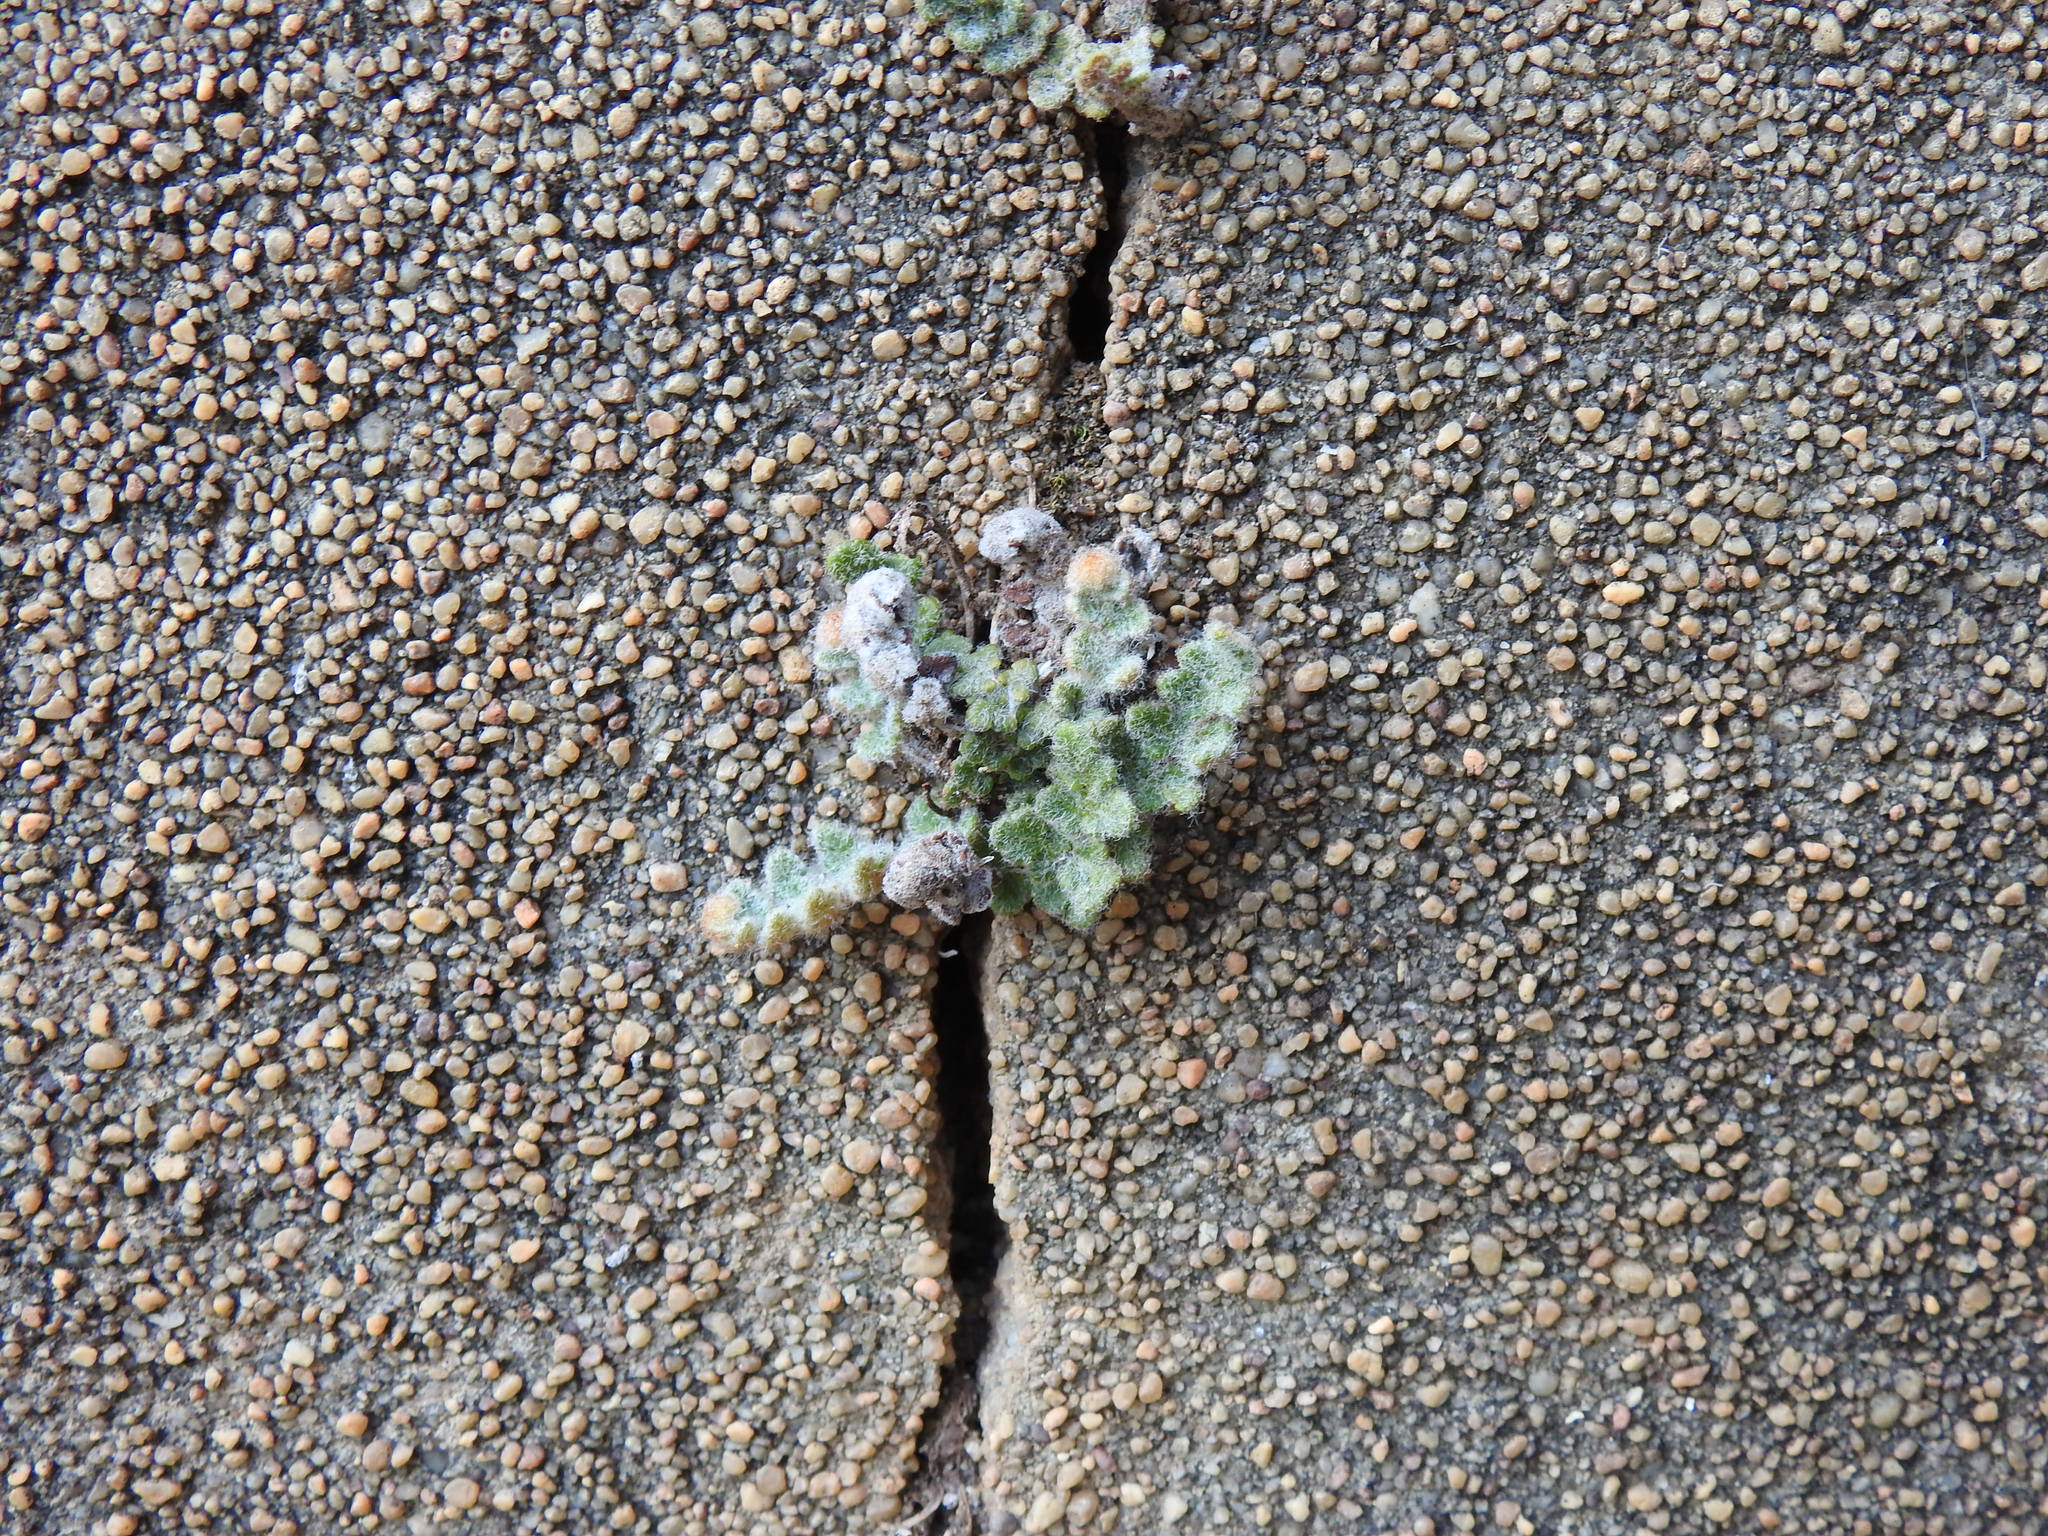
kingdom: Plantae
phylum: Tracheophyta
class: Polypodiopsida
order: Polypodiales
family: Pteridaceae
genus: Cosentinia
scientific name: Cosentinia vellea
